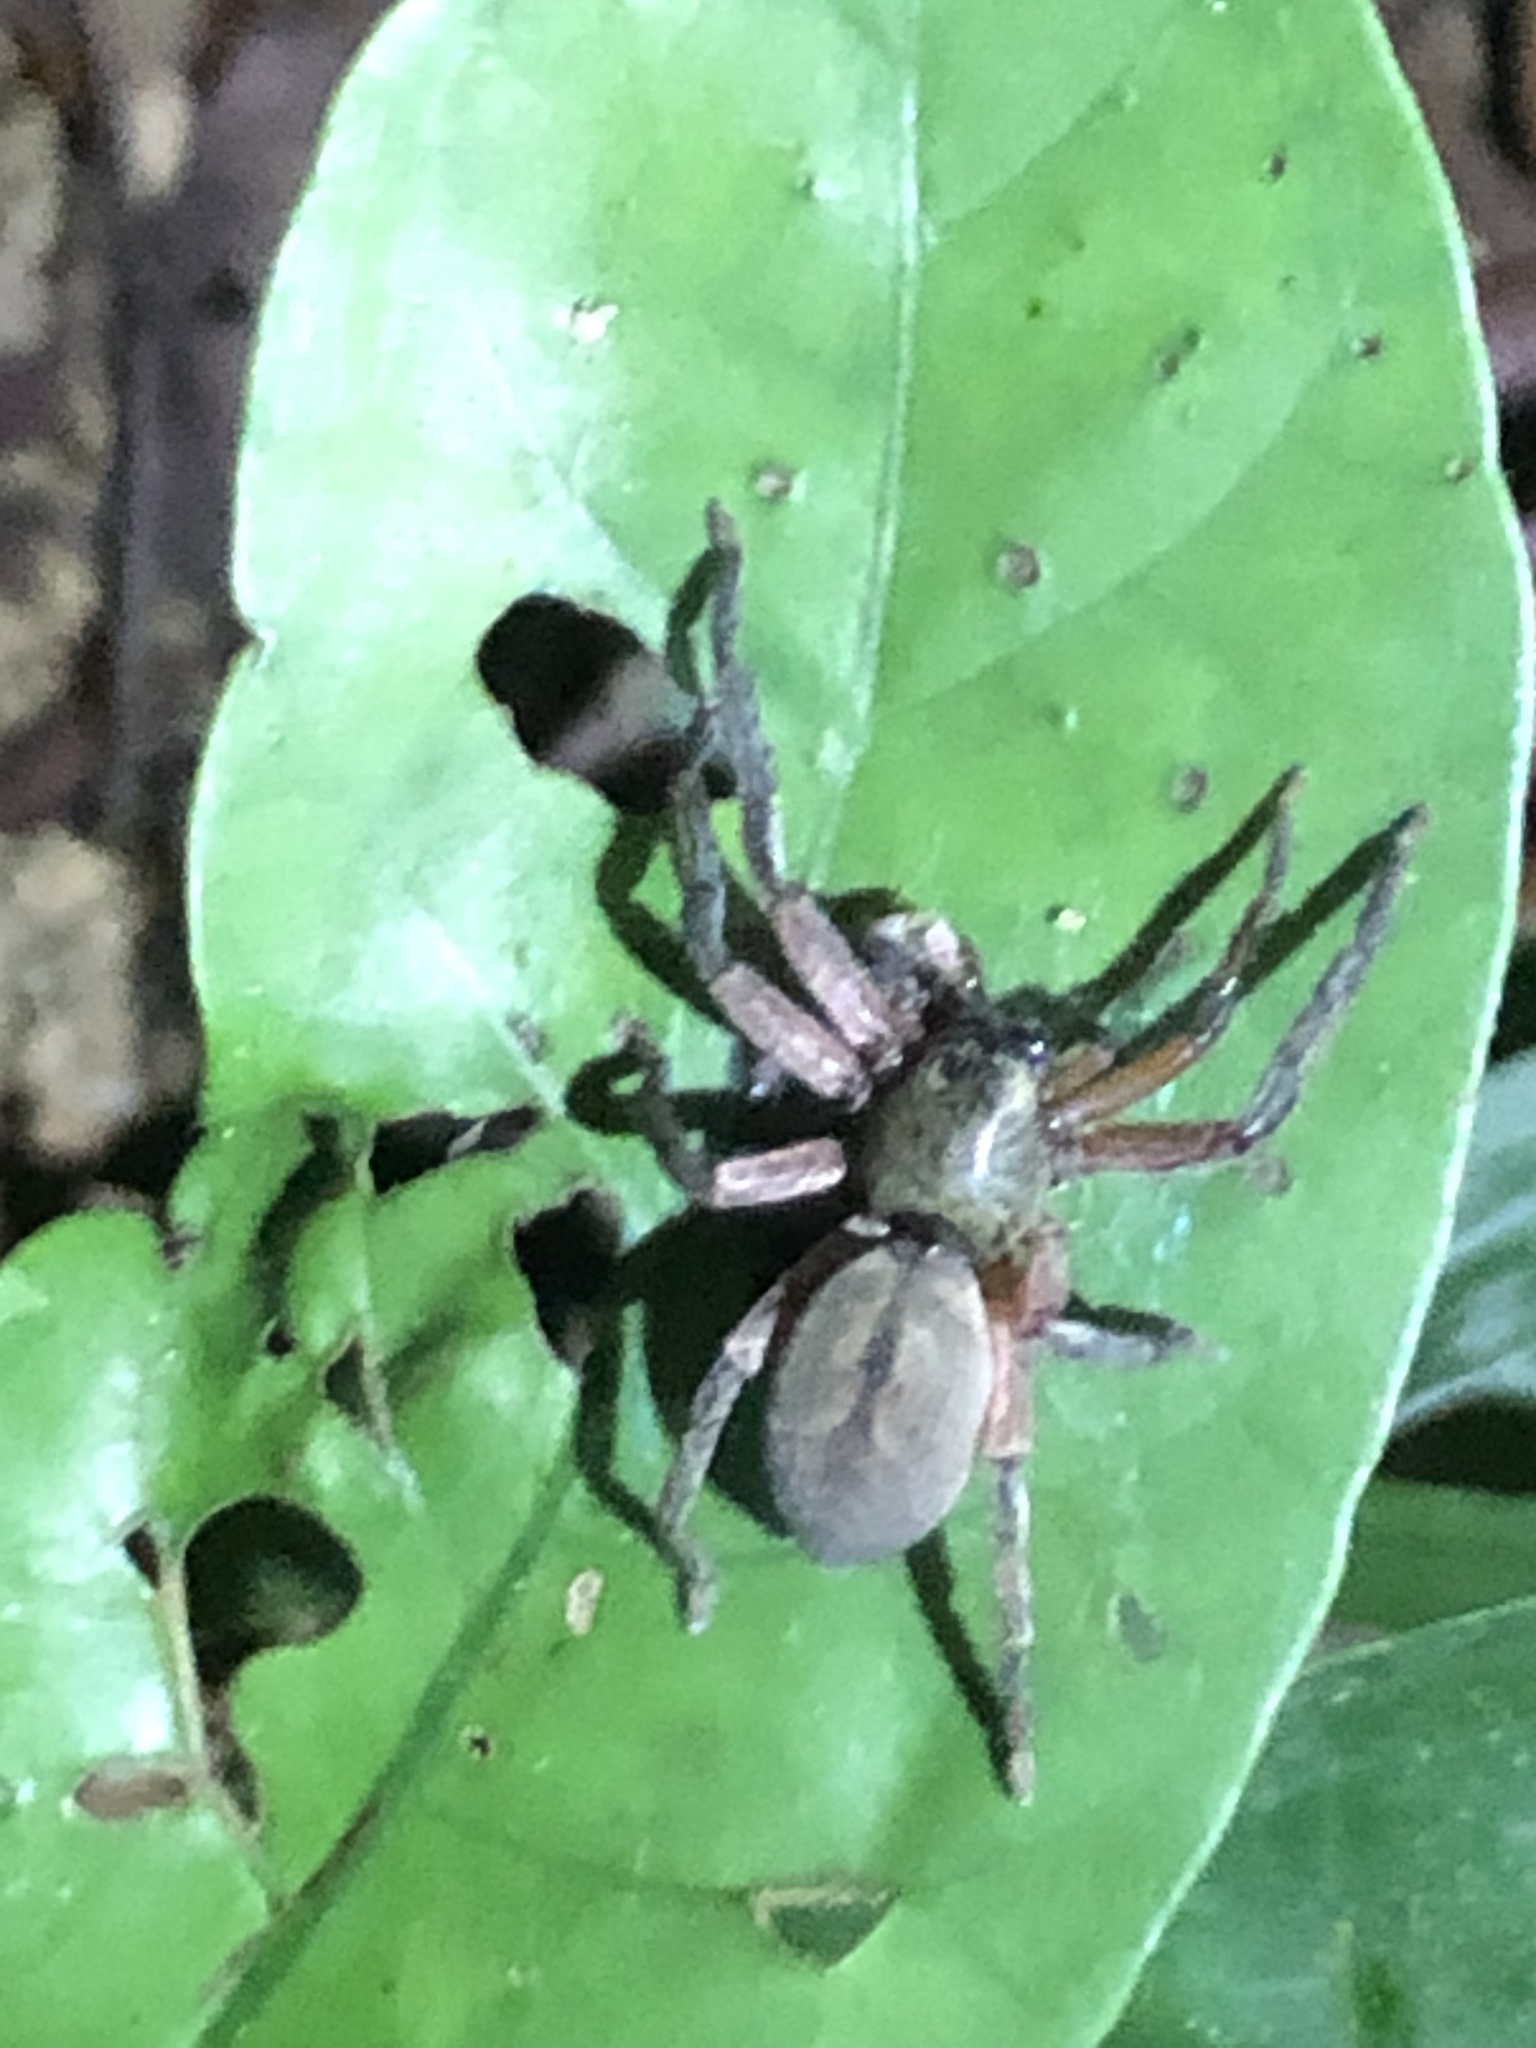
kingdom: Animalia
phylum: Arthropoda
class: Arachnida
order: Araneae
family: Sparassidae
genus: Thelcticopis
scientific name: Thelcticopis severa
